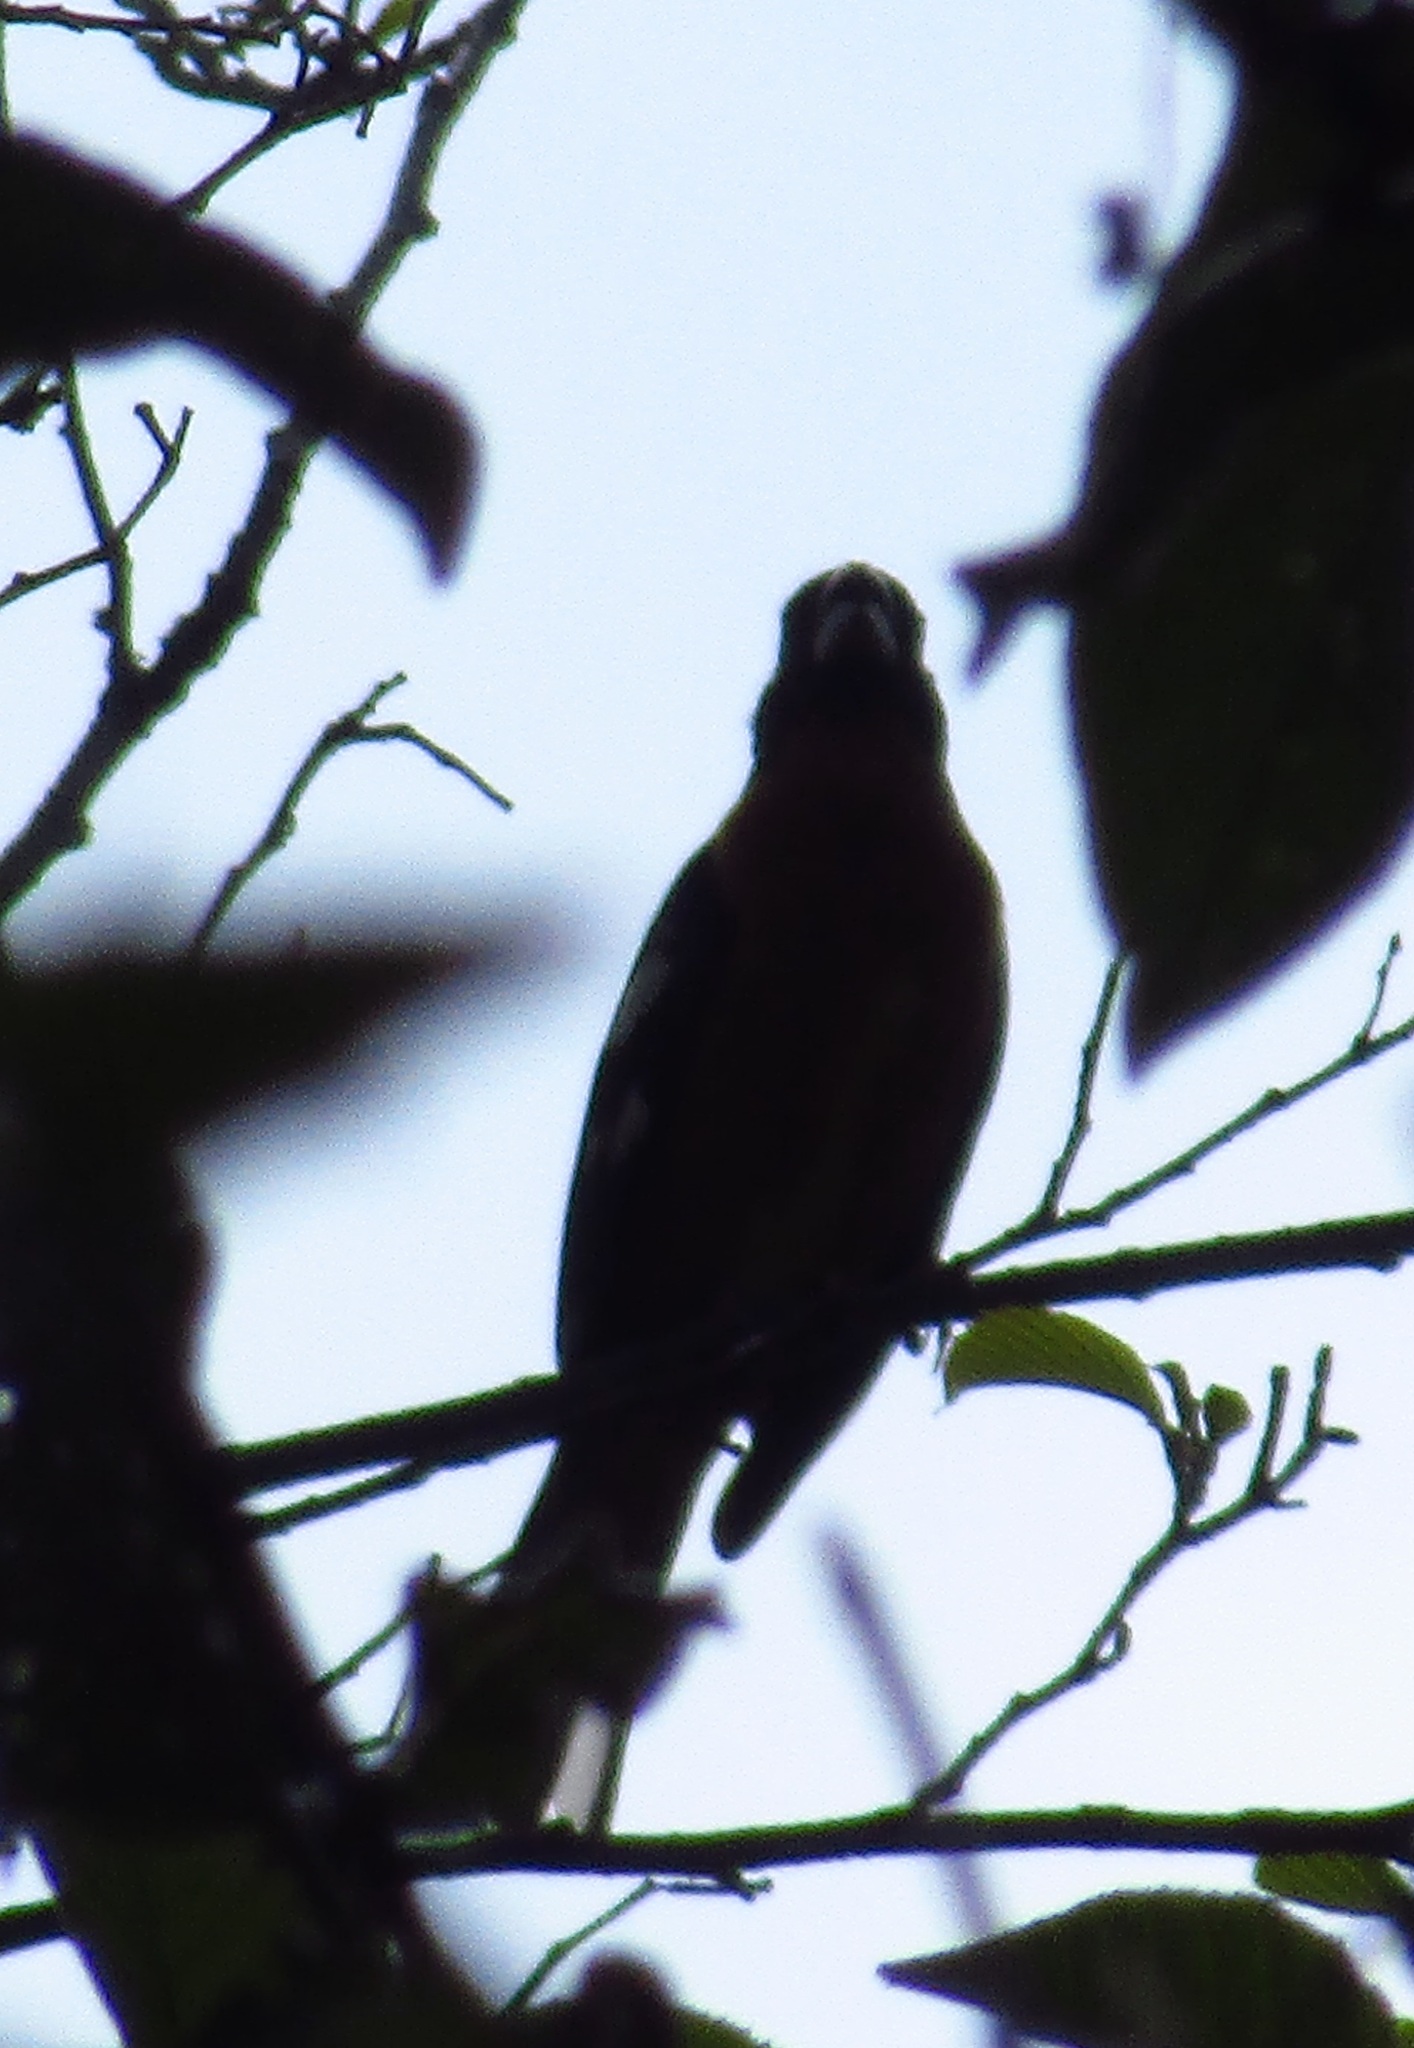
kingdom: Animalia
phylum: Chordata
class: Aves
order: Passeriformes
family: Cardinalidae
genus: Pheucticus
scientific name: Pheucticus melanocephalus
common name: Black-headed grosbeak
